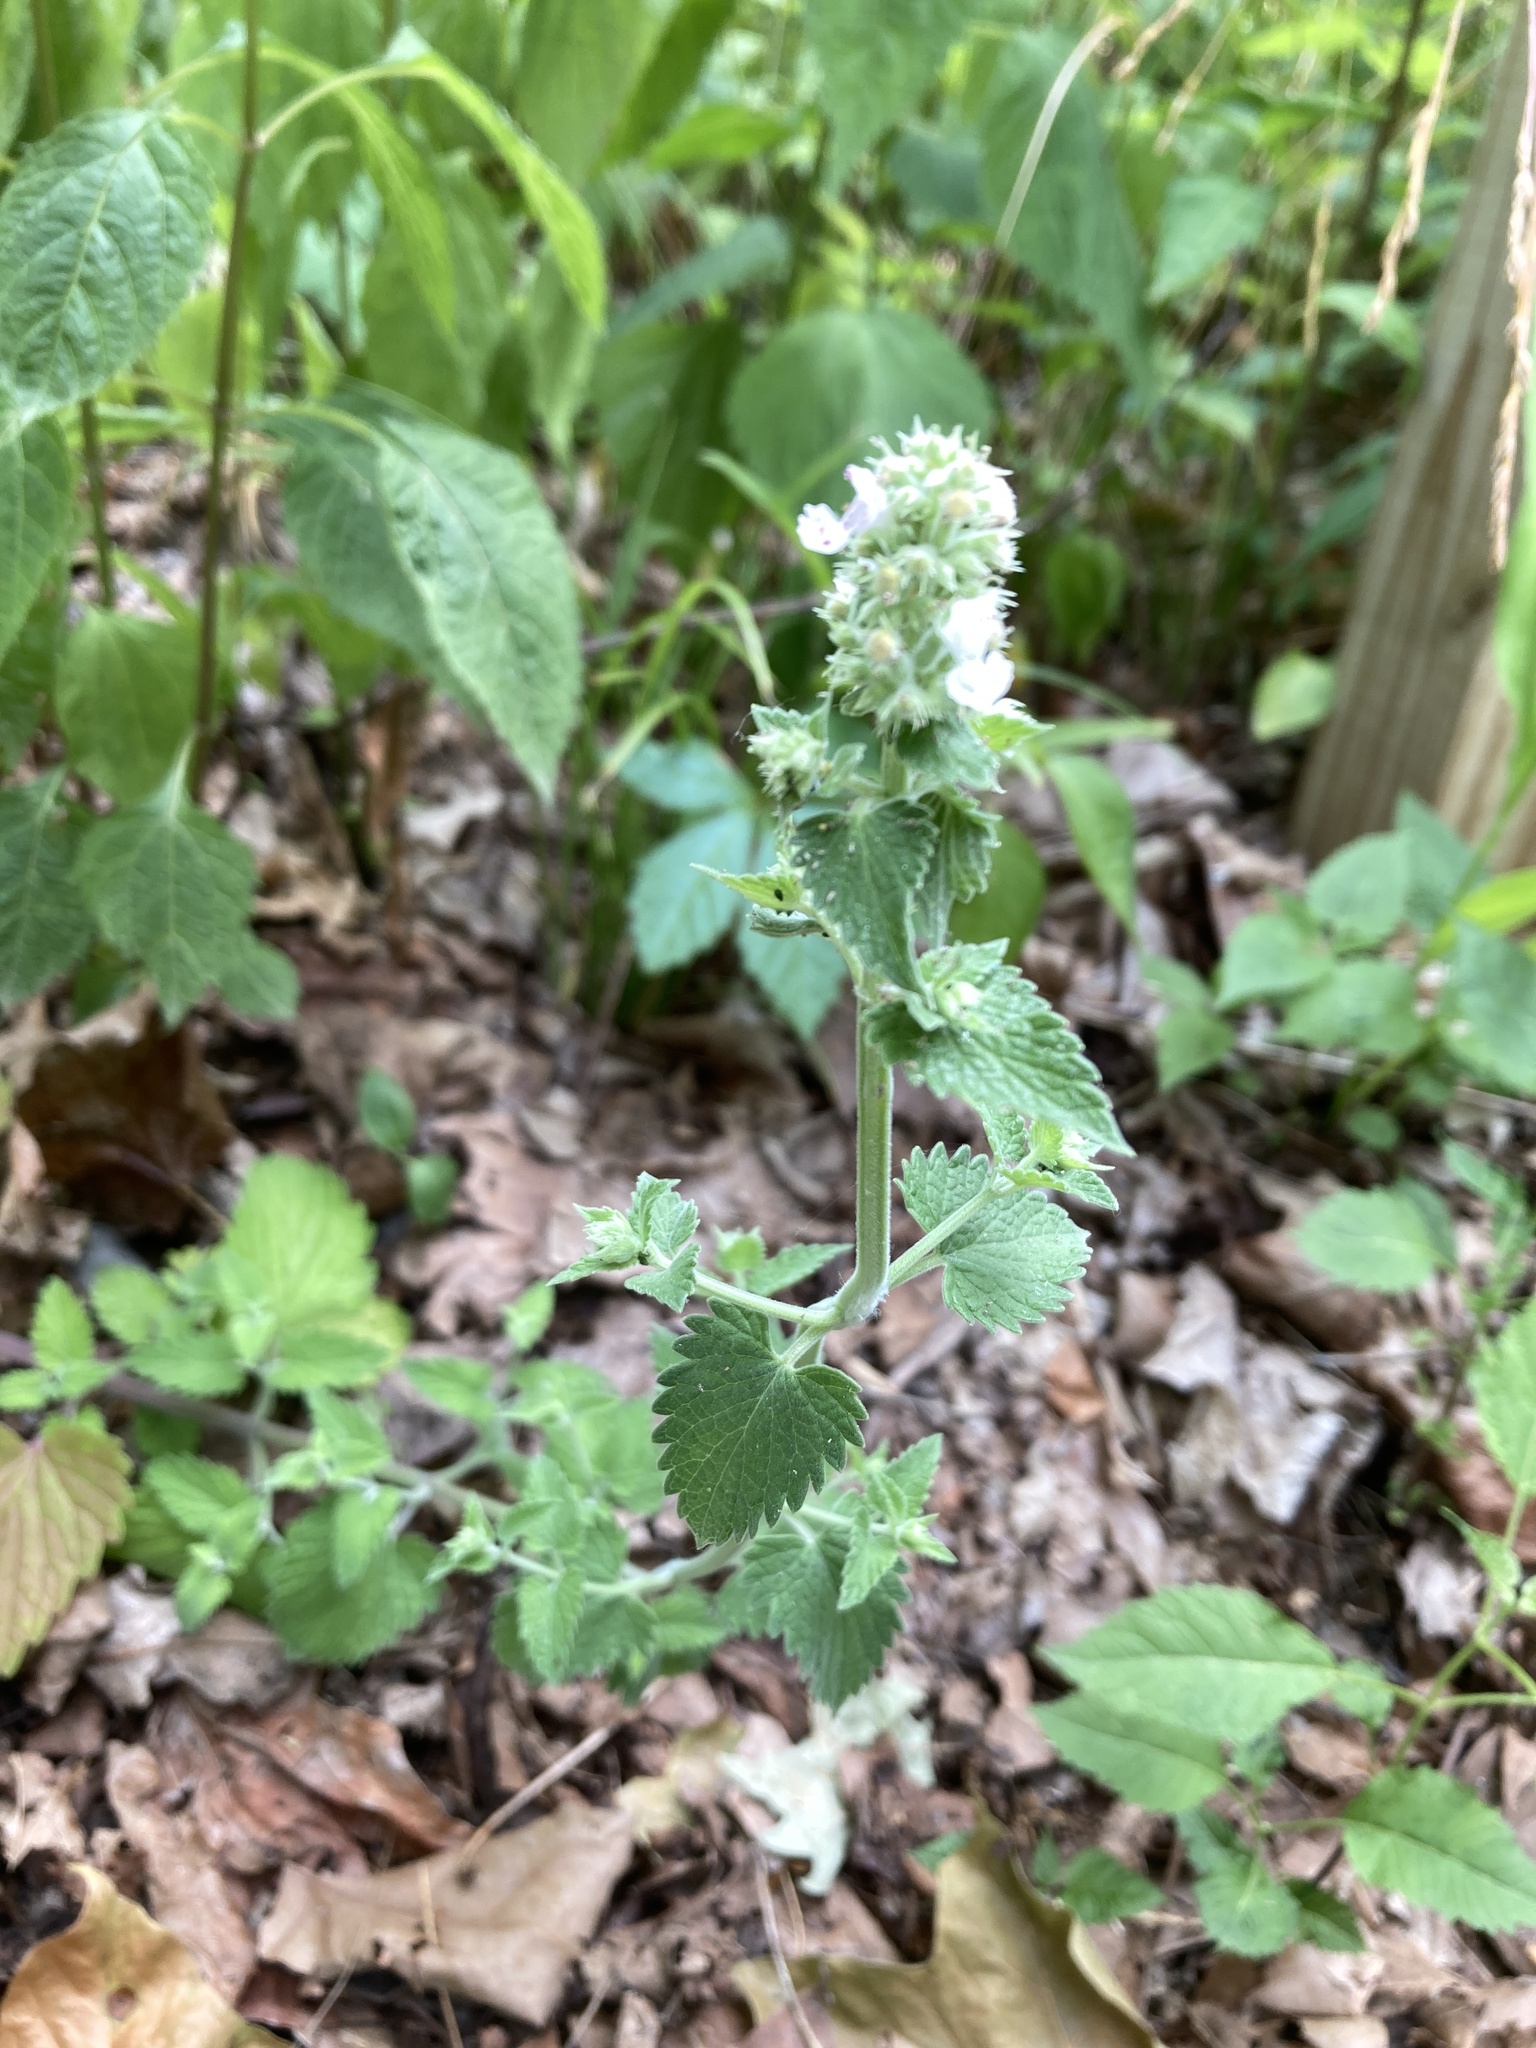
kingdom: Plantae
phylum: Tracheophyta
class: Magnoliopsida
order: Lamiales
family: Lamiaceae
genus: Nepeta
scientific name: Nepeta cataria
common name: Catnip
